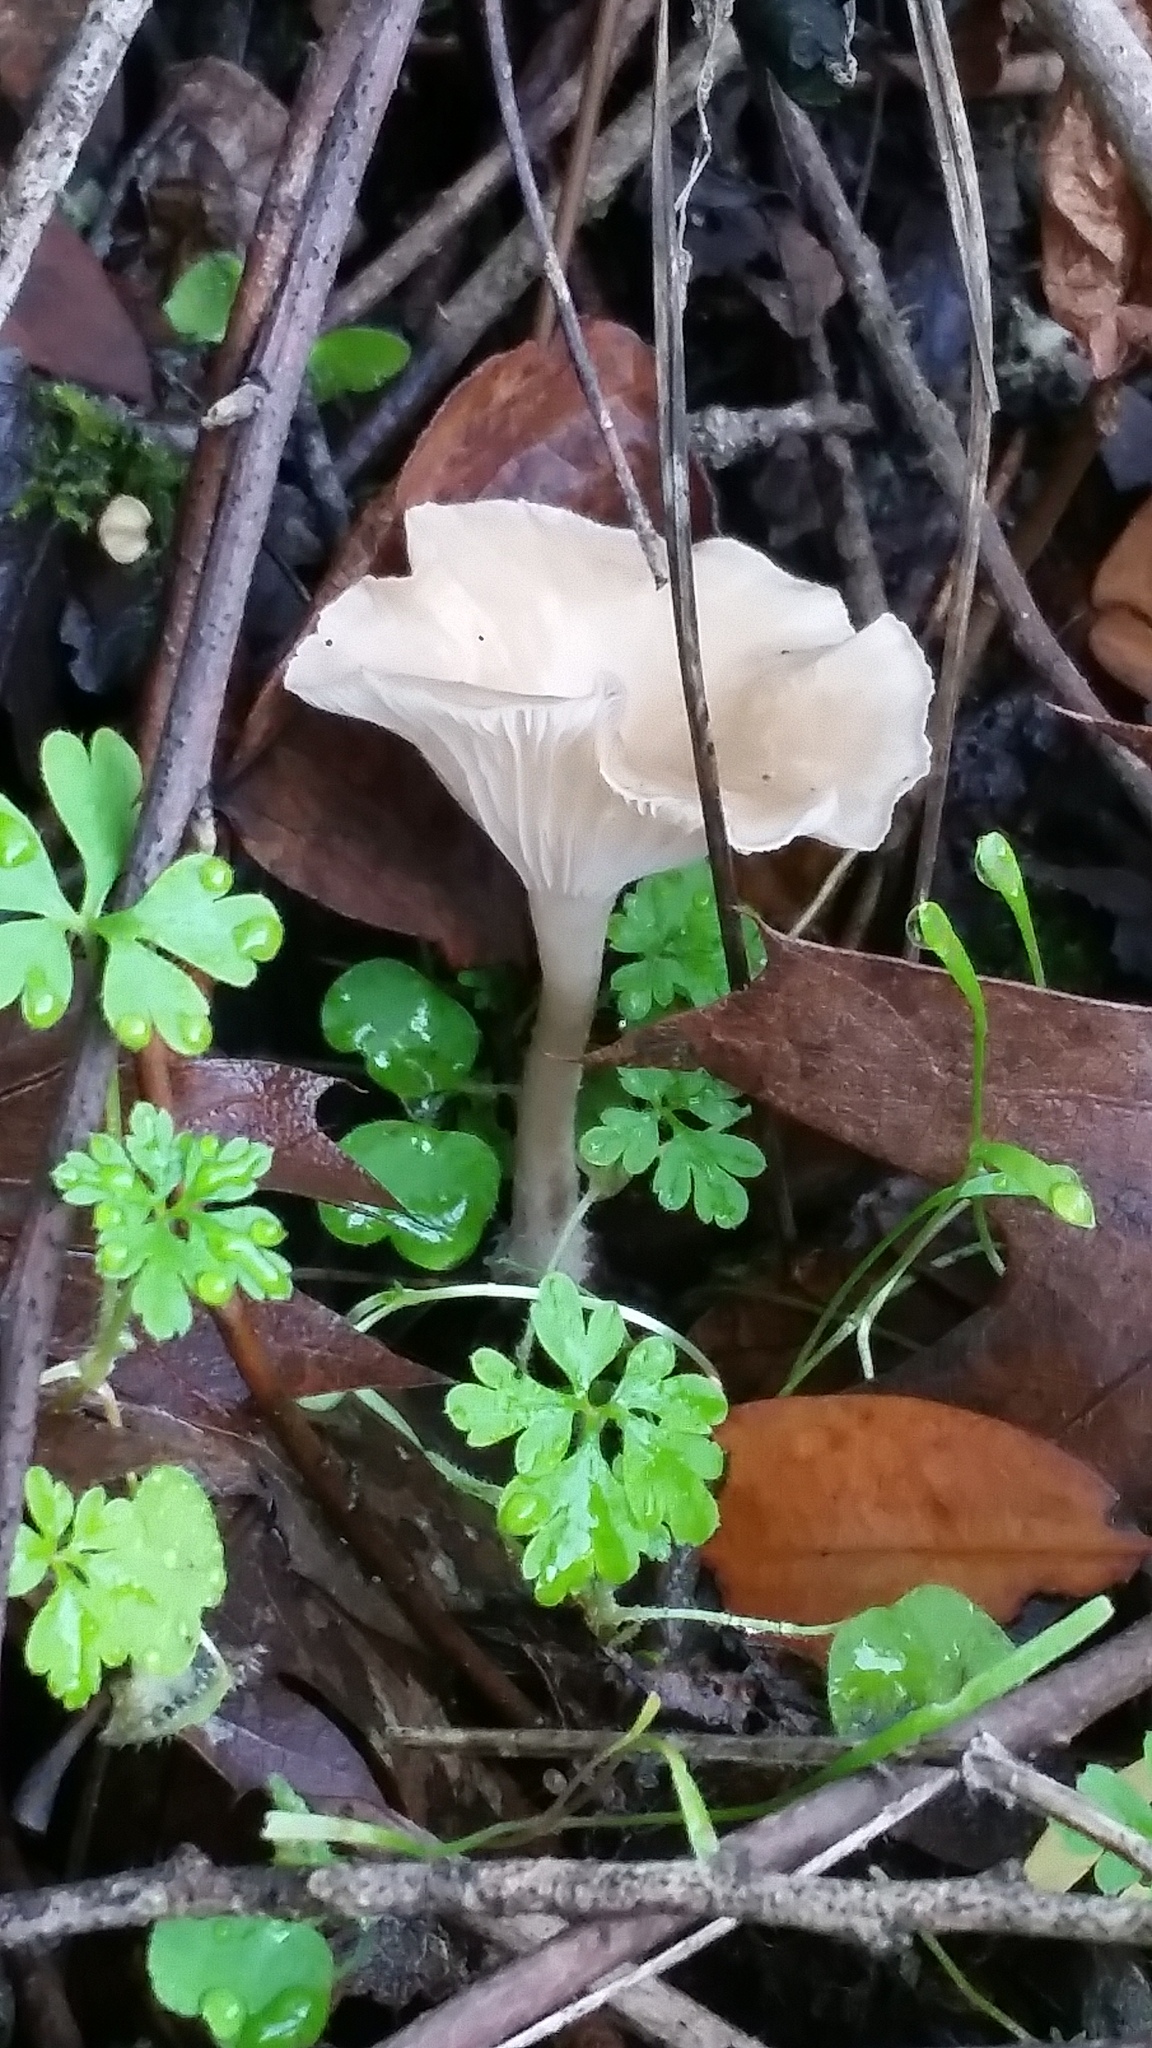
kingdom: Fungi
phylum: Basidiomycota
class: Agaricomycetes
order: Agaricales
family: Tricholomataceae
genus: Clitocybe
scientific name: Clitocybe fragrans
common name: Fragrant funnel
